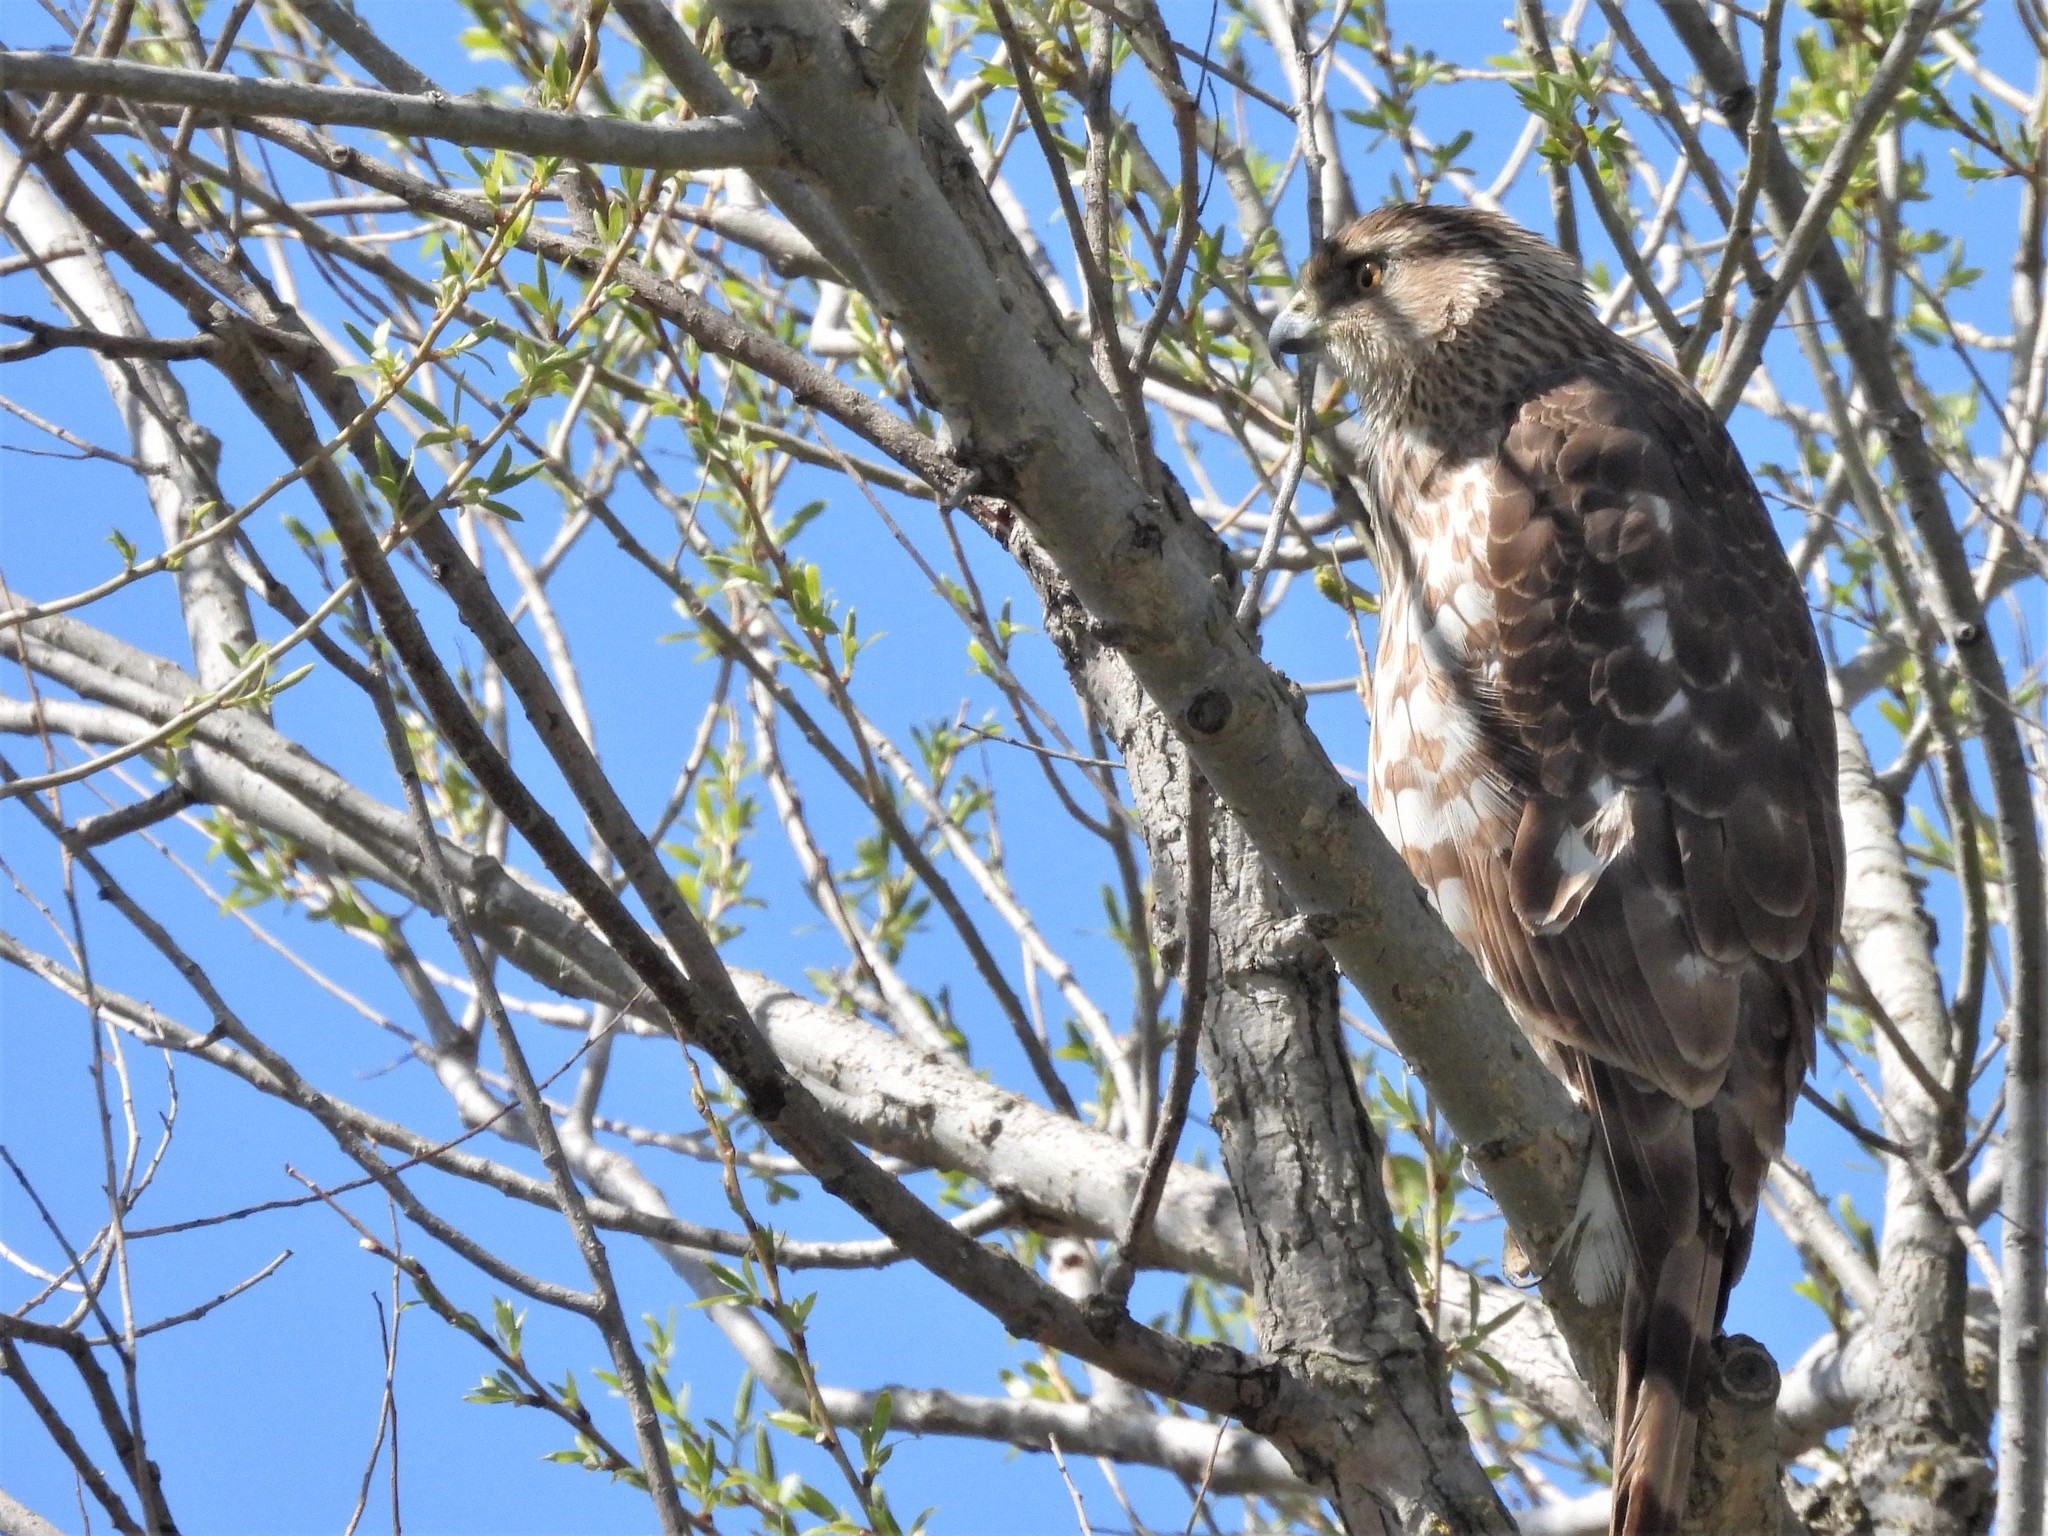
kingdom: Animalia
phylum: Chordata
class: Aves
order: Accipitriformes
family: Accipitridae
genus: Accipiter
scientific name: Accipiter cooperii
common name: Cooper's hawk
